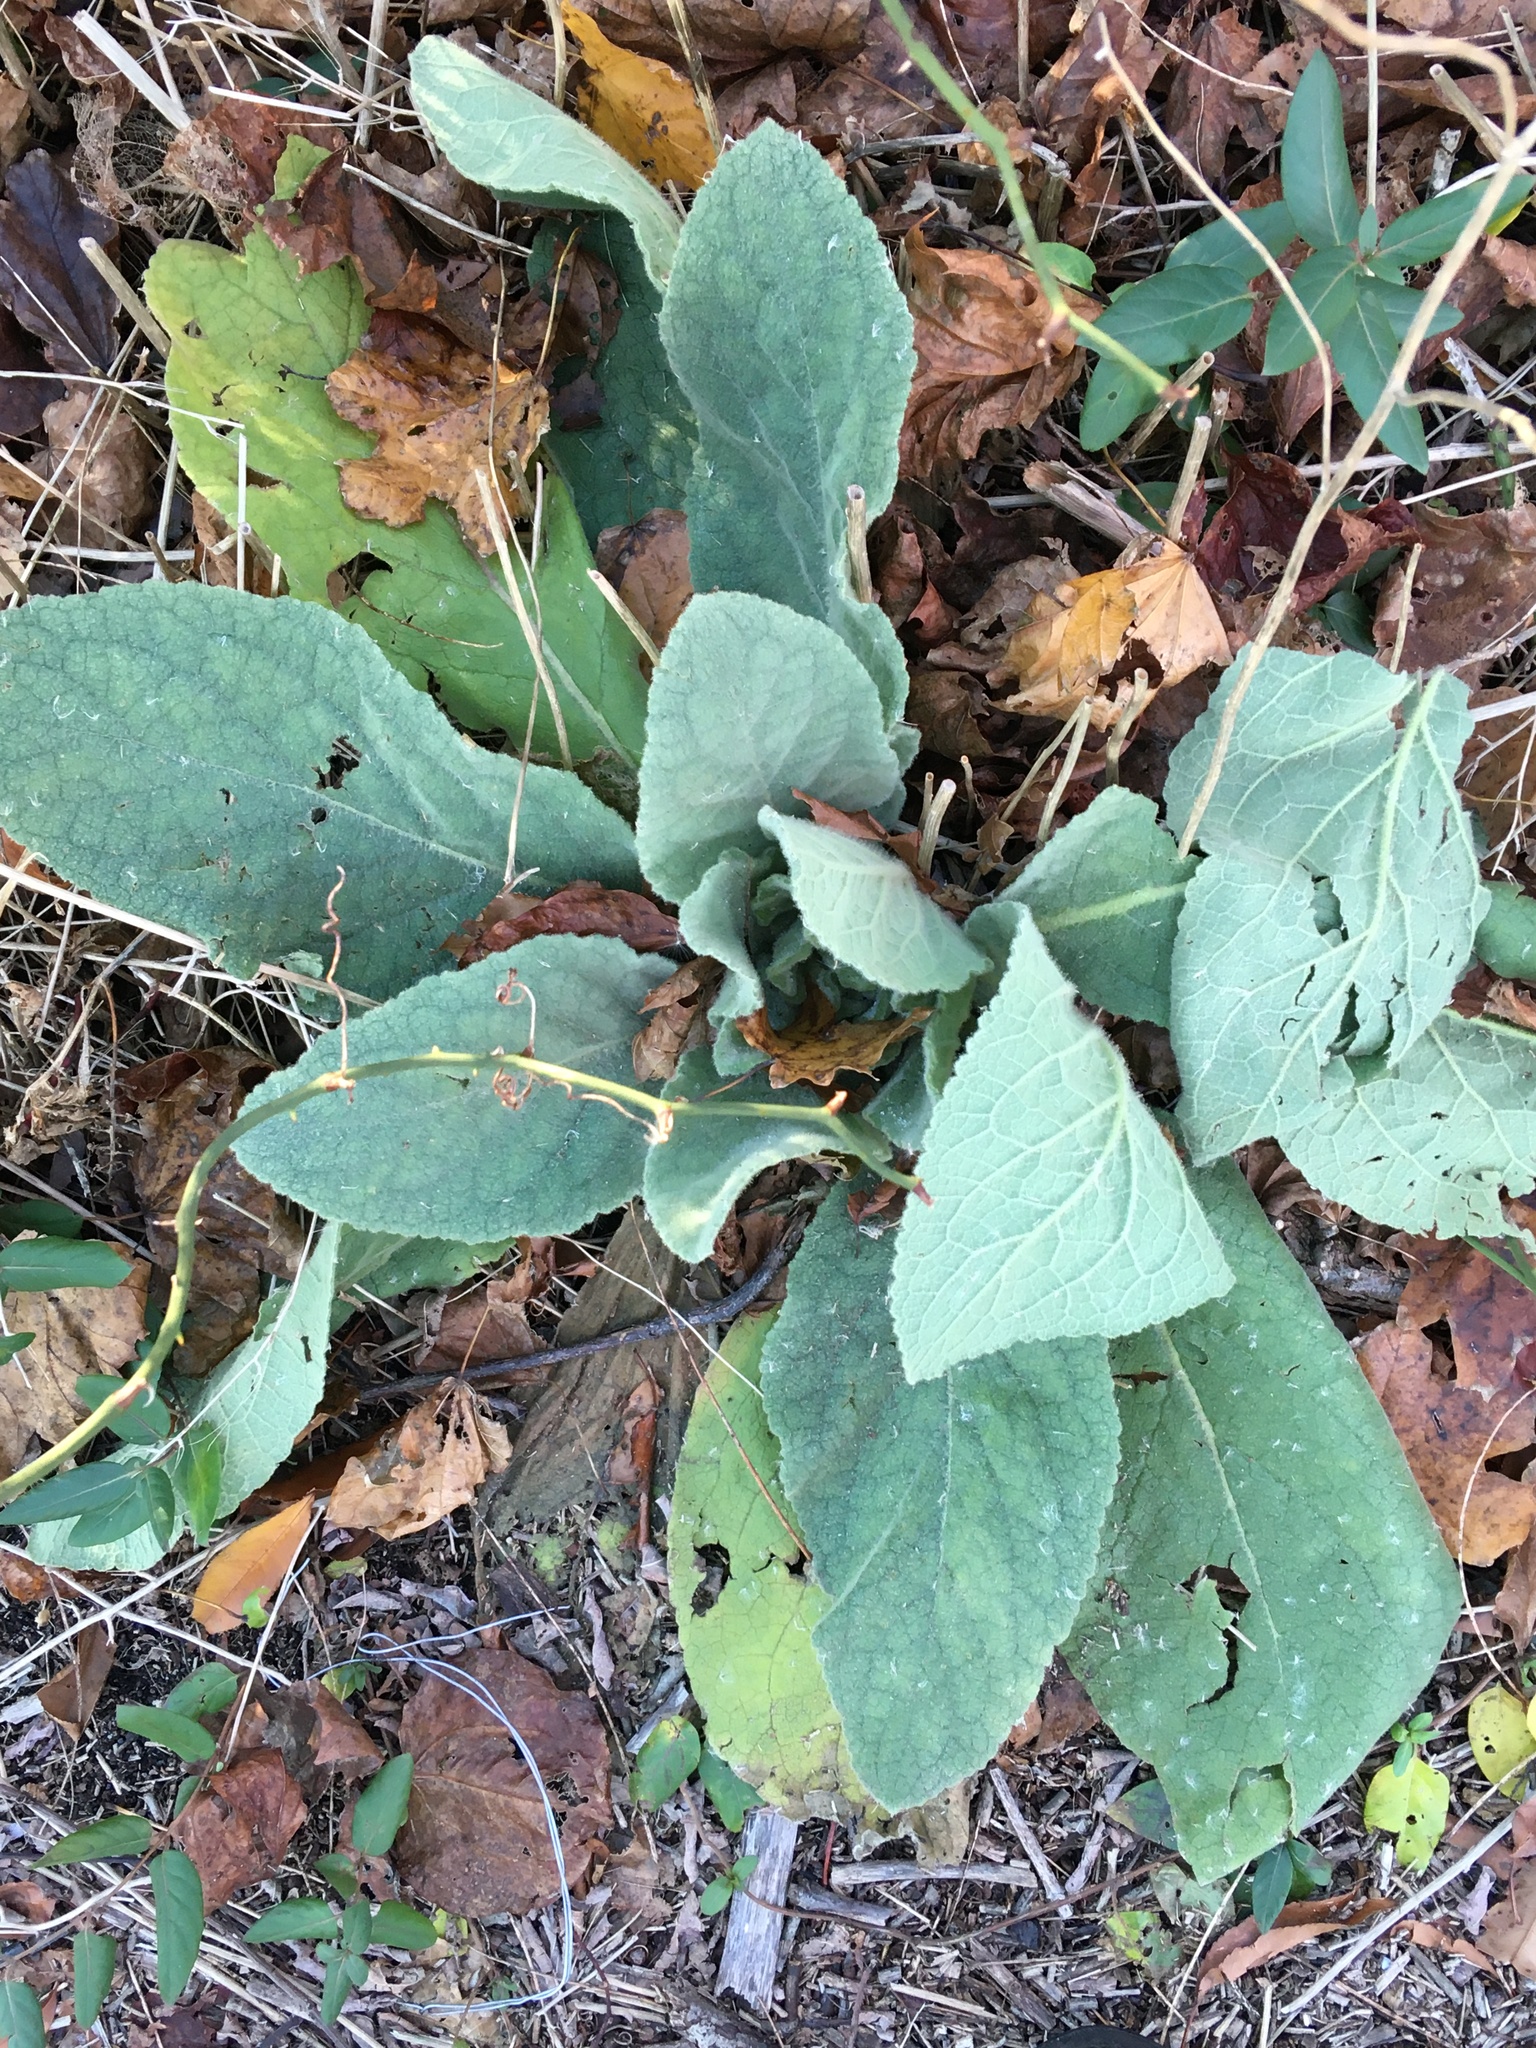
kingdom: Plantae
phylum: Tracheophyta
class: Magnoliopsida
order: Lamiales
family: Scrophulariaceae
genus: Verbascum
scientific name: Verbascum thapsus
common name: Common mullein
